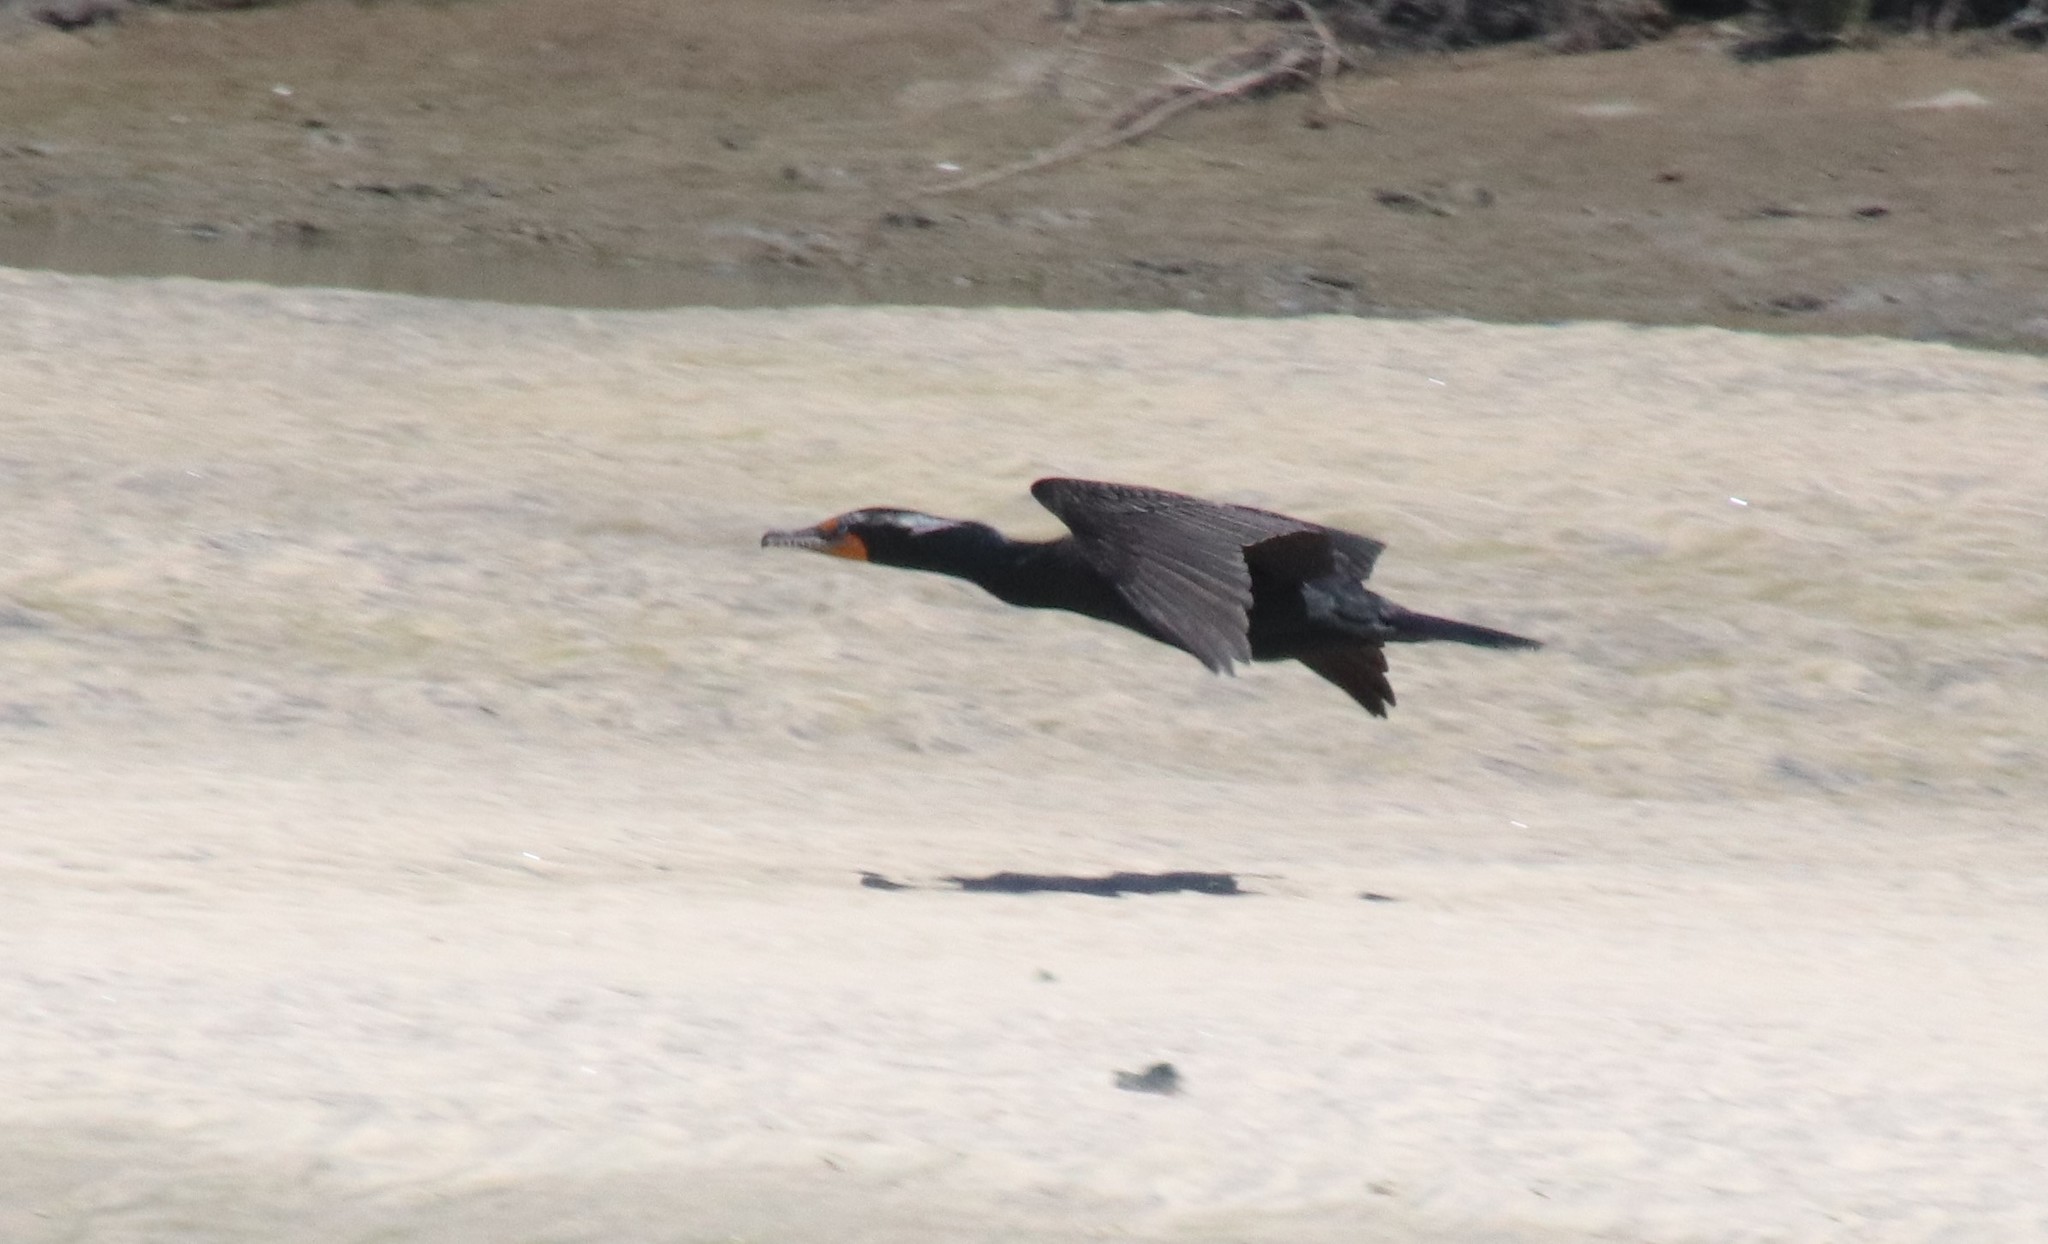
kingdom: Animalia
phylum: Chordata
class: Aves
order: Suliformes
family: Phalacrocoracidae
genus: Phalacrocorax
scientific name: Phalacrocorax auritus
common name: Double-crested cormorant
